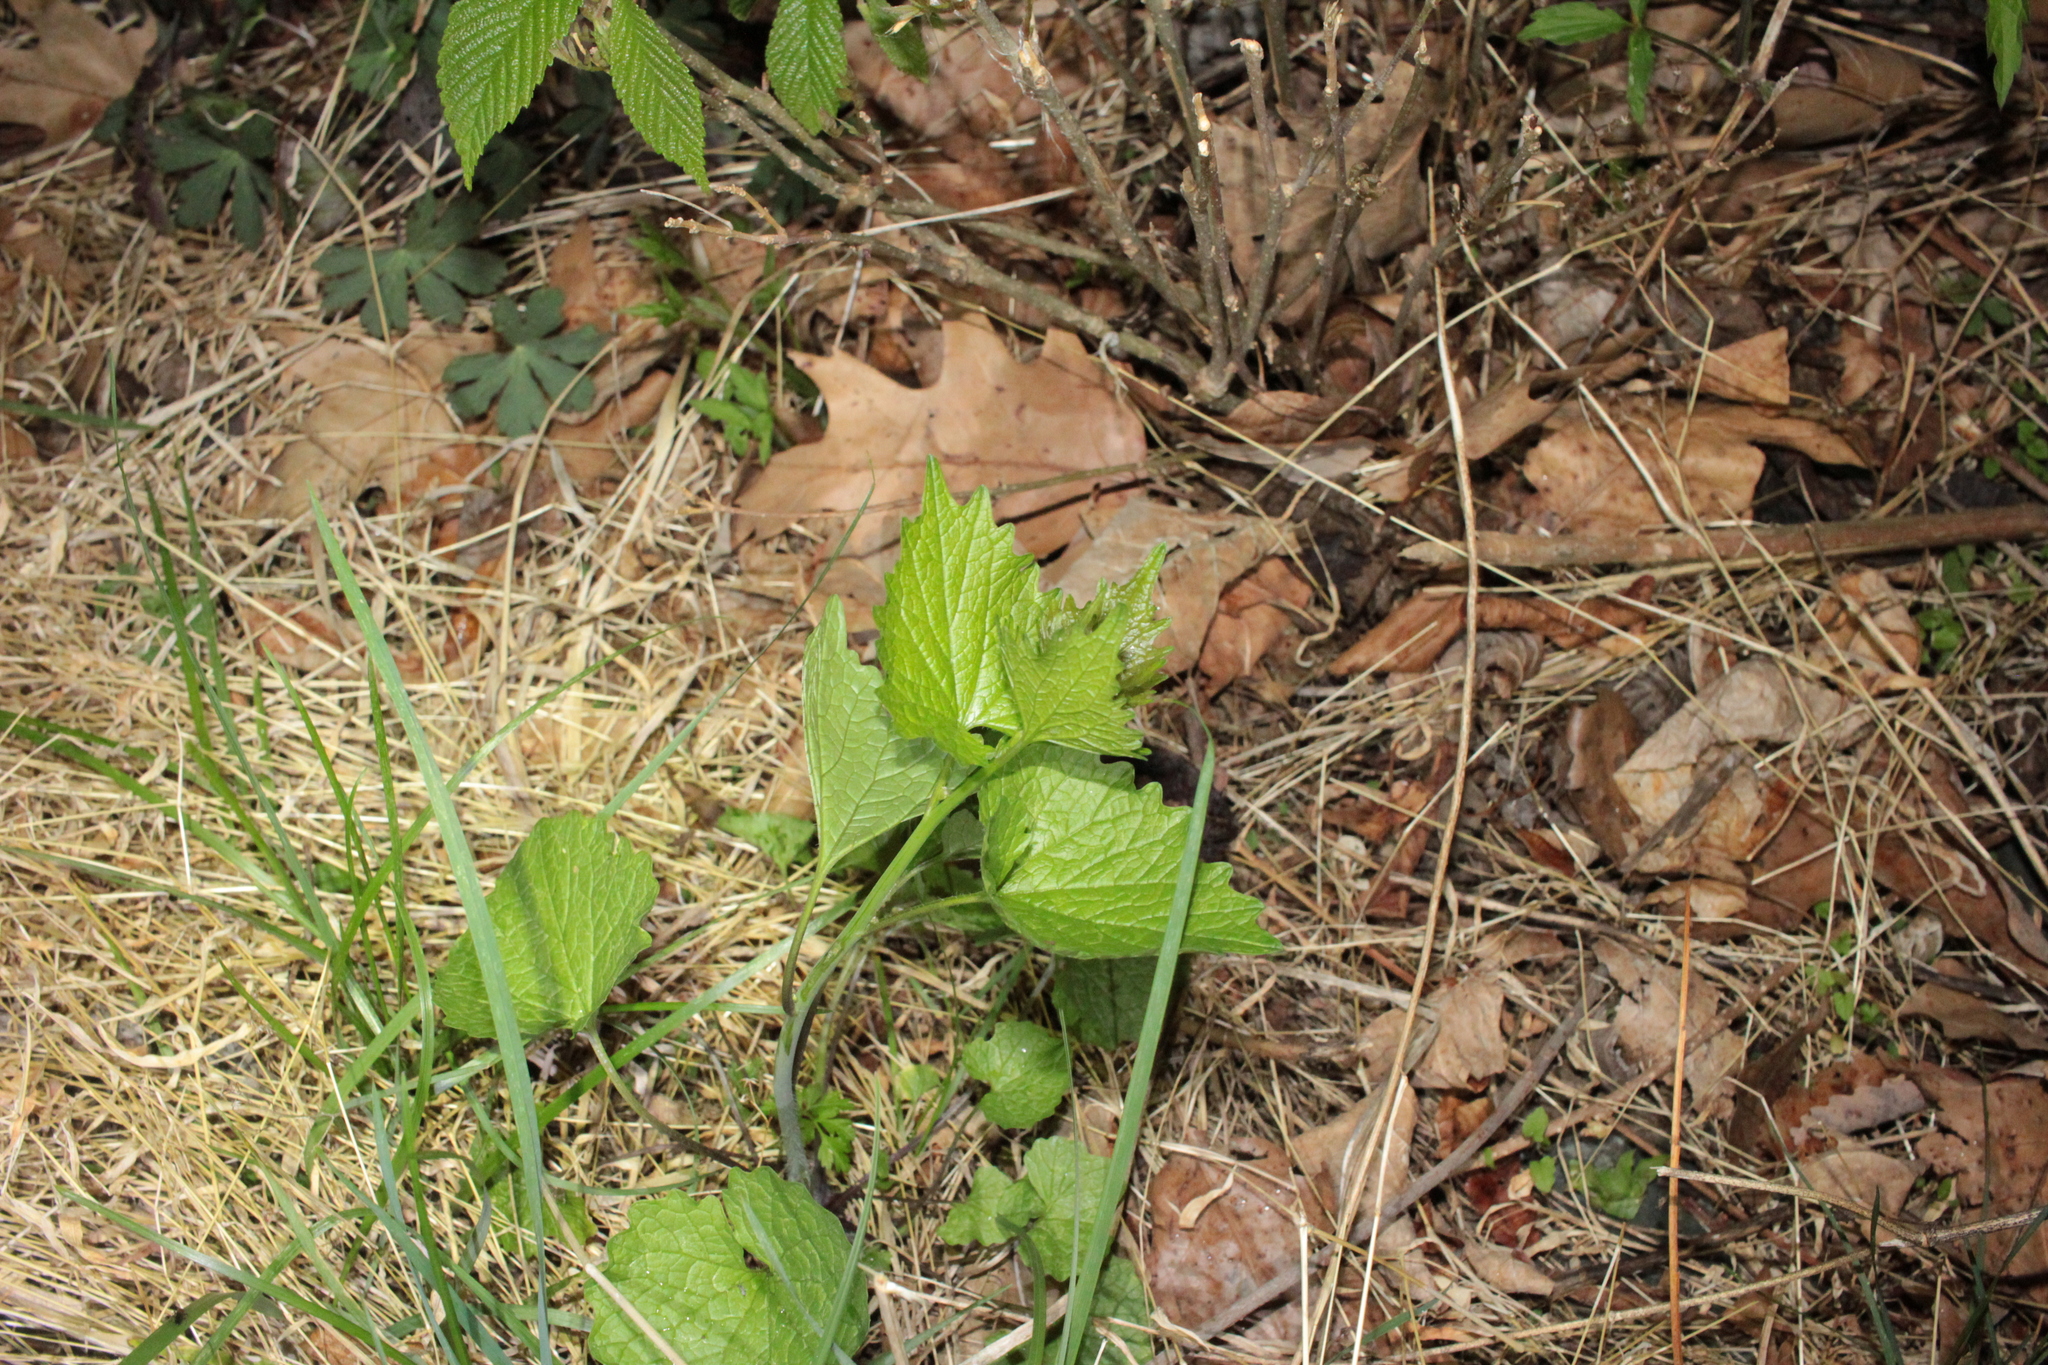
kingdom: Plantae
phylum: Tracheophyta
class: Magnoliopsida
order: Brassicales
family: Brassicaceae
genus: Alliaria
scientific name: Alliaria petiolata
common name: Garlic mustard
